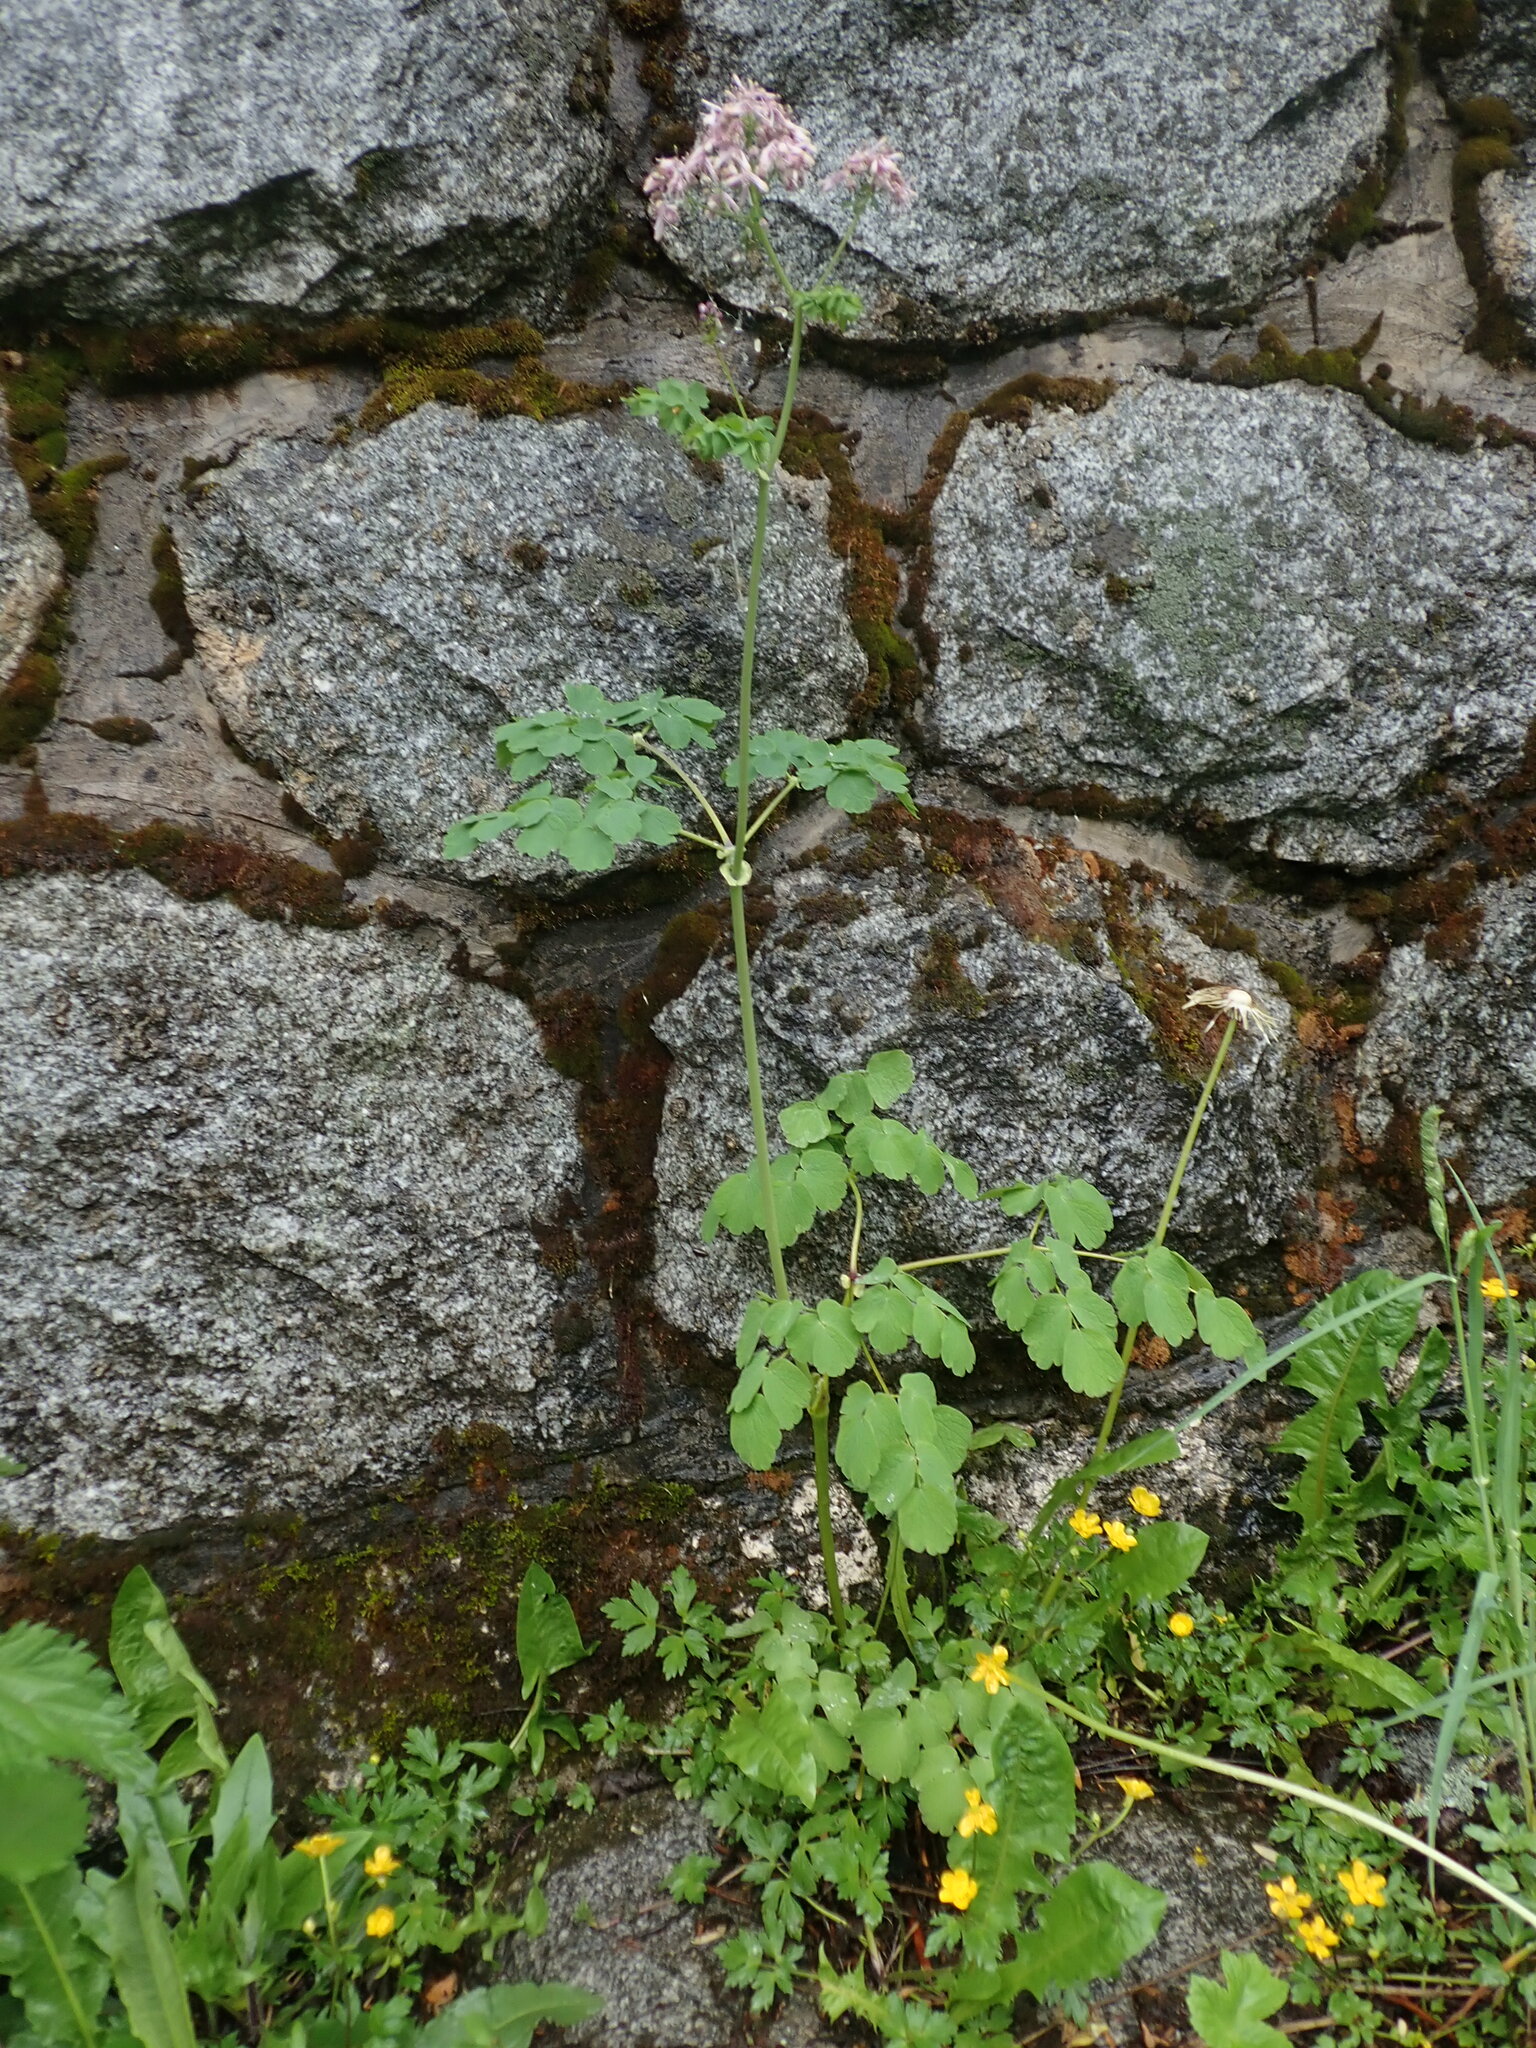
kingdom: Plantae
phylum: Tracheophyta
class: Magnoliopsida
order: Ranunculales
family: Ranunculaceae
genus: Thalictrum
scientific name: Thalictrum aquilegiifolium
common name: French meadow-rue
